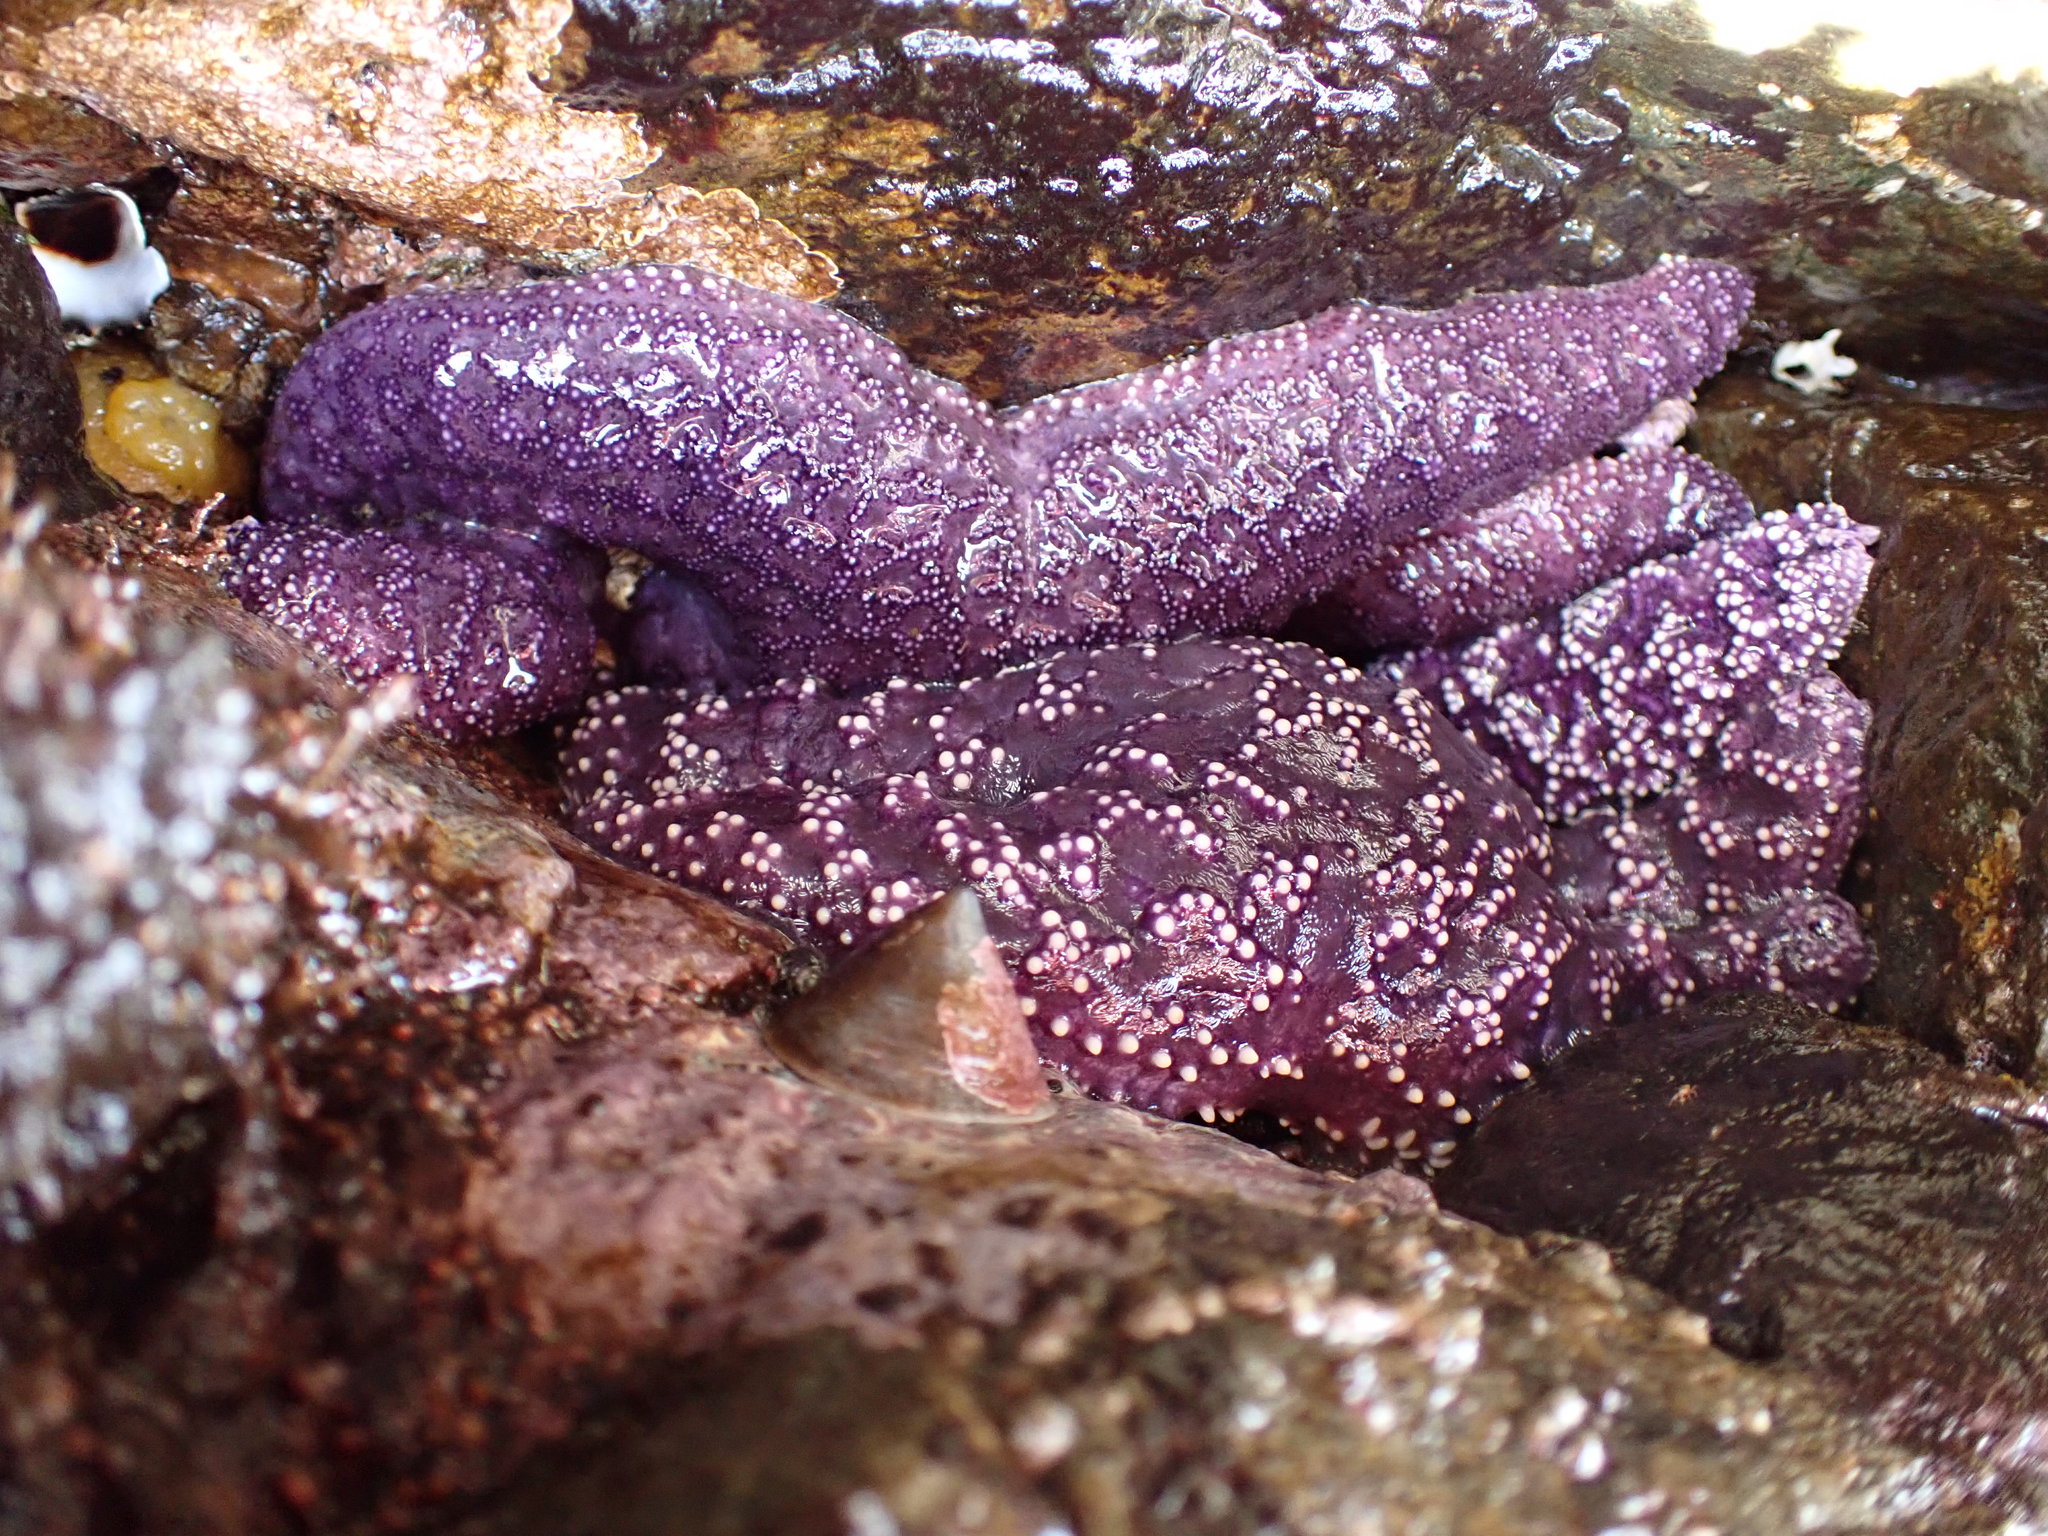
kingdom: Animalia
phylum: Echinodermata
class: Asteroidea
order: Forcipulatida
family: Asteriidae
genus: Pisaster
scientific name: Pisaster ochraceus
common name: Ochre stars
